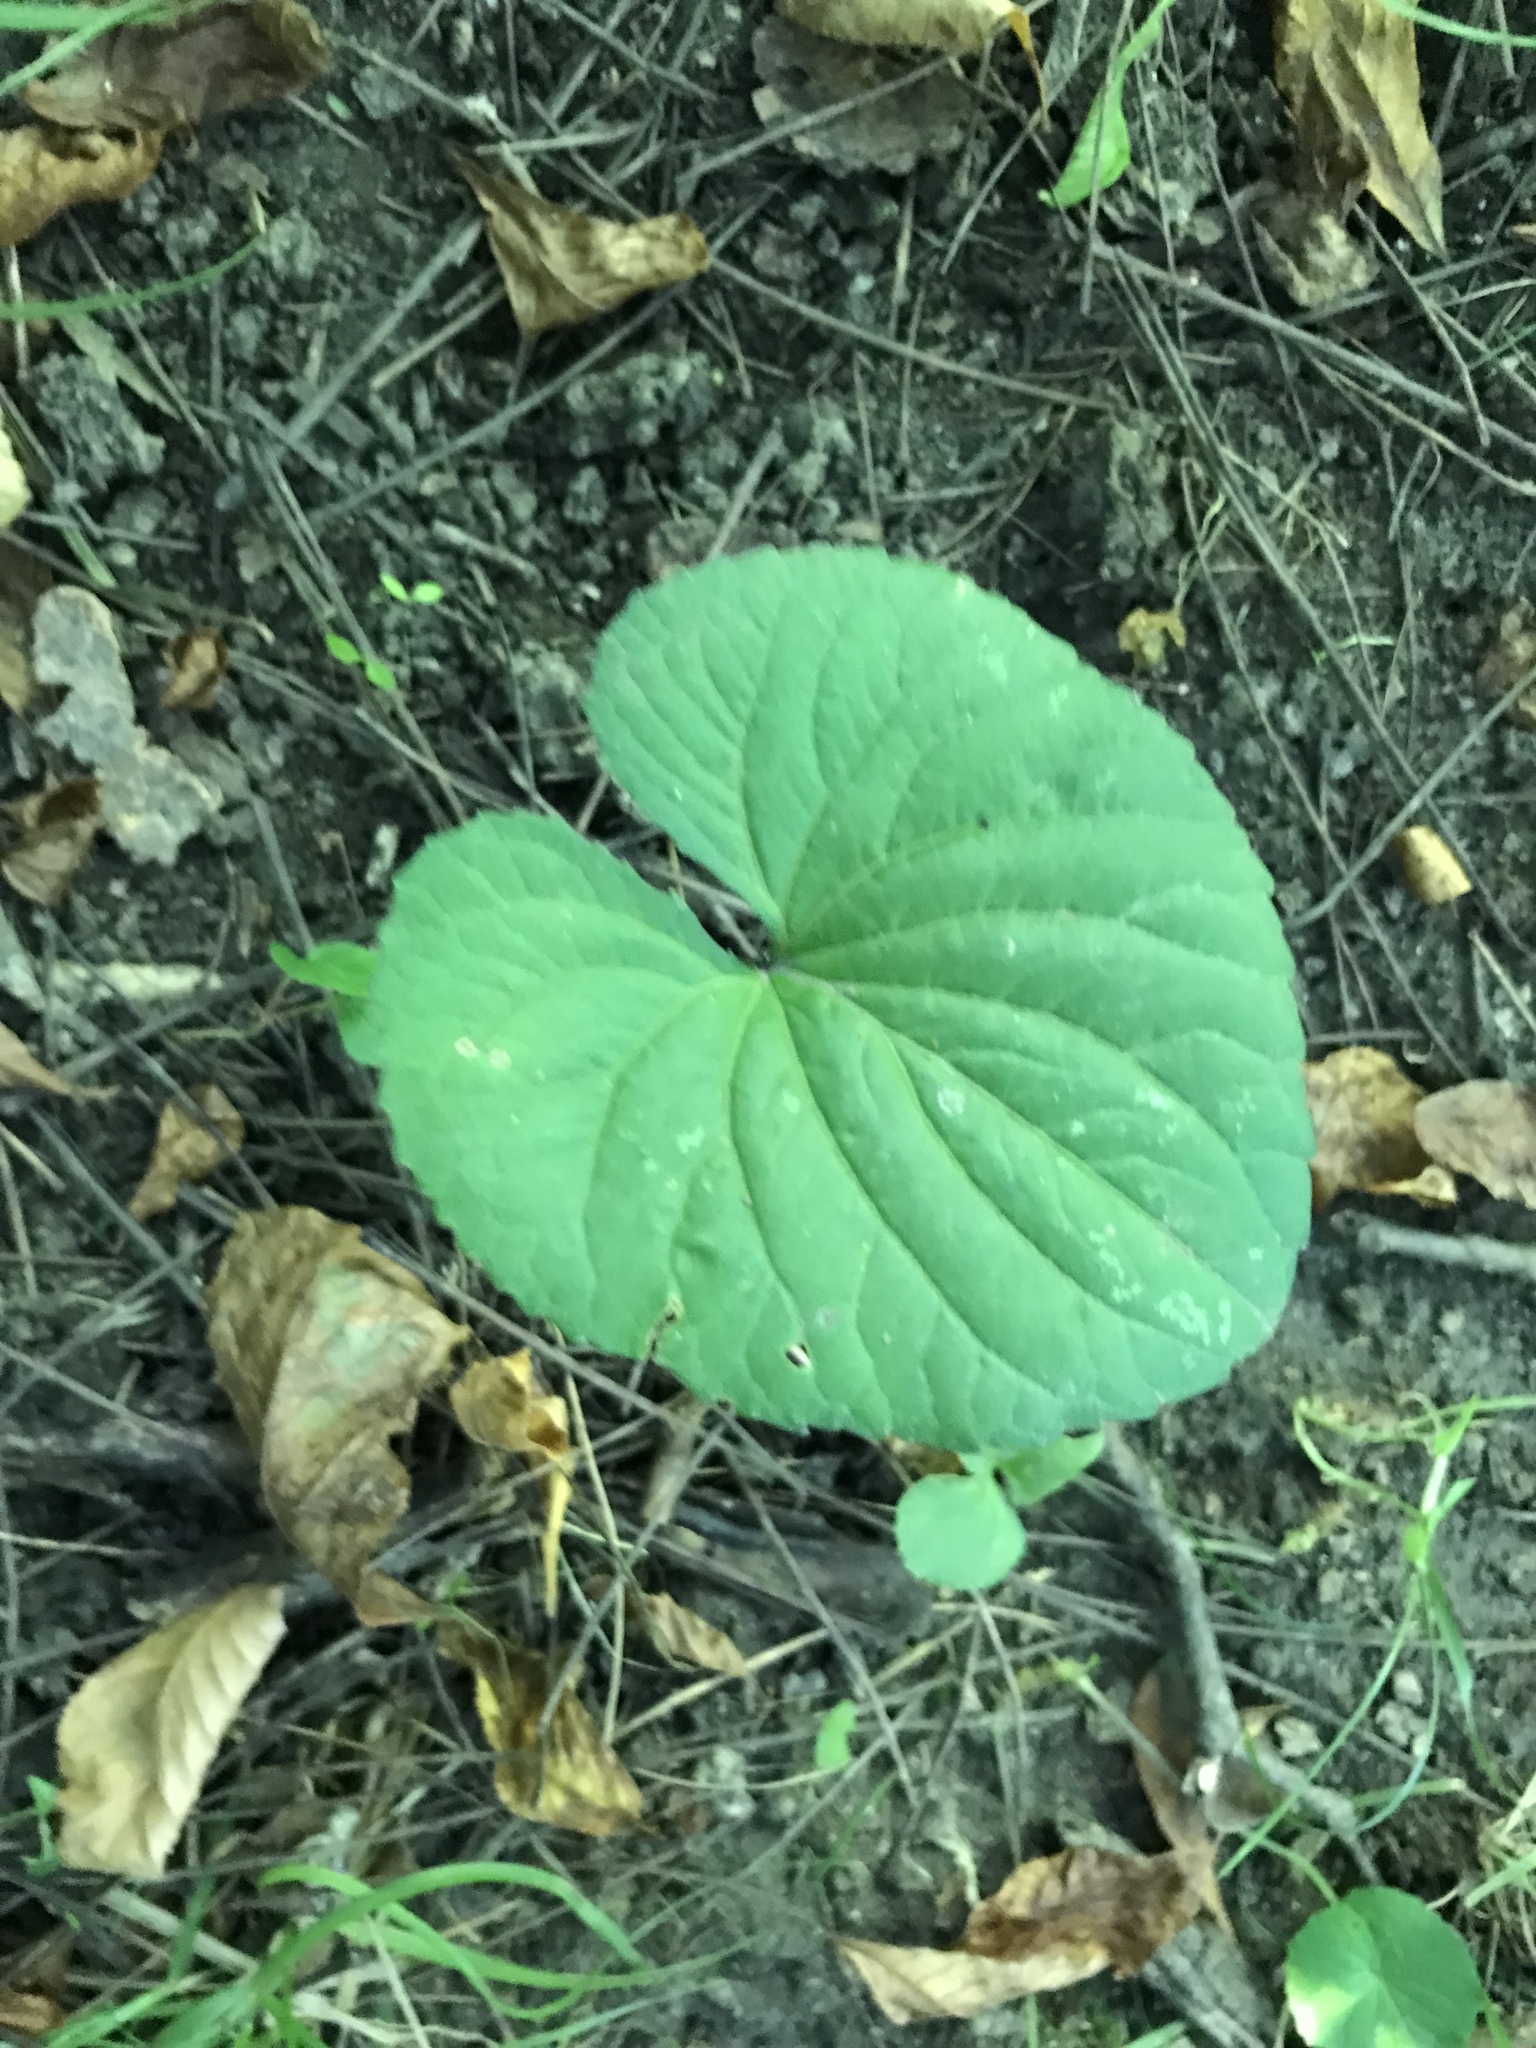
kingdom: Plantae
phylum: Tracheophyta
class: Magnoliopsida
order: Piperales
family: Aristolochiaceae
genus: Asarum
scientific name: Asarum canadense
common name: Wild ginger
